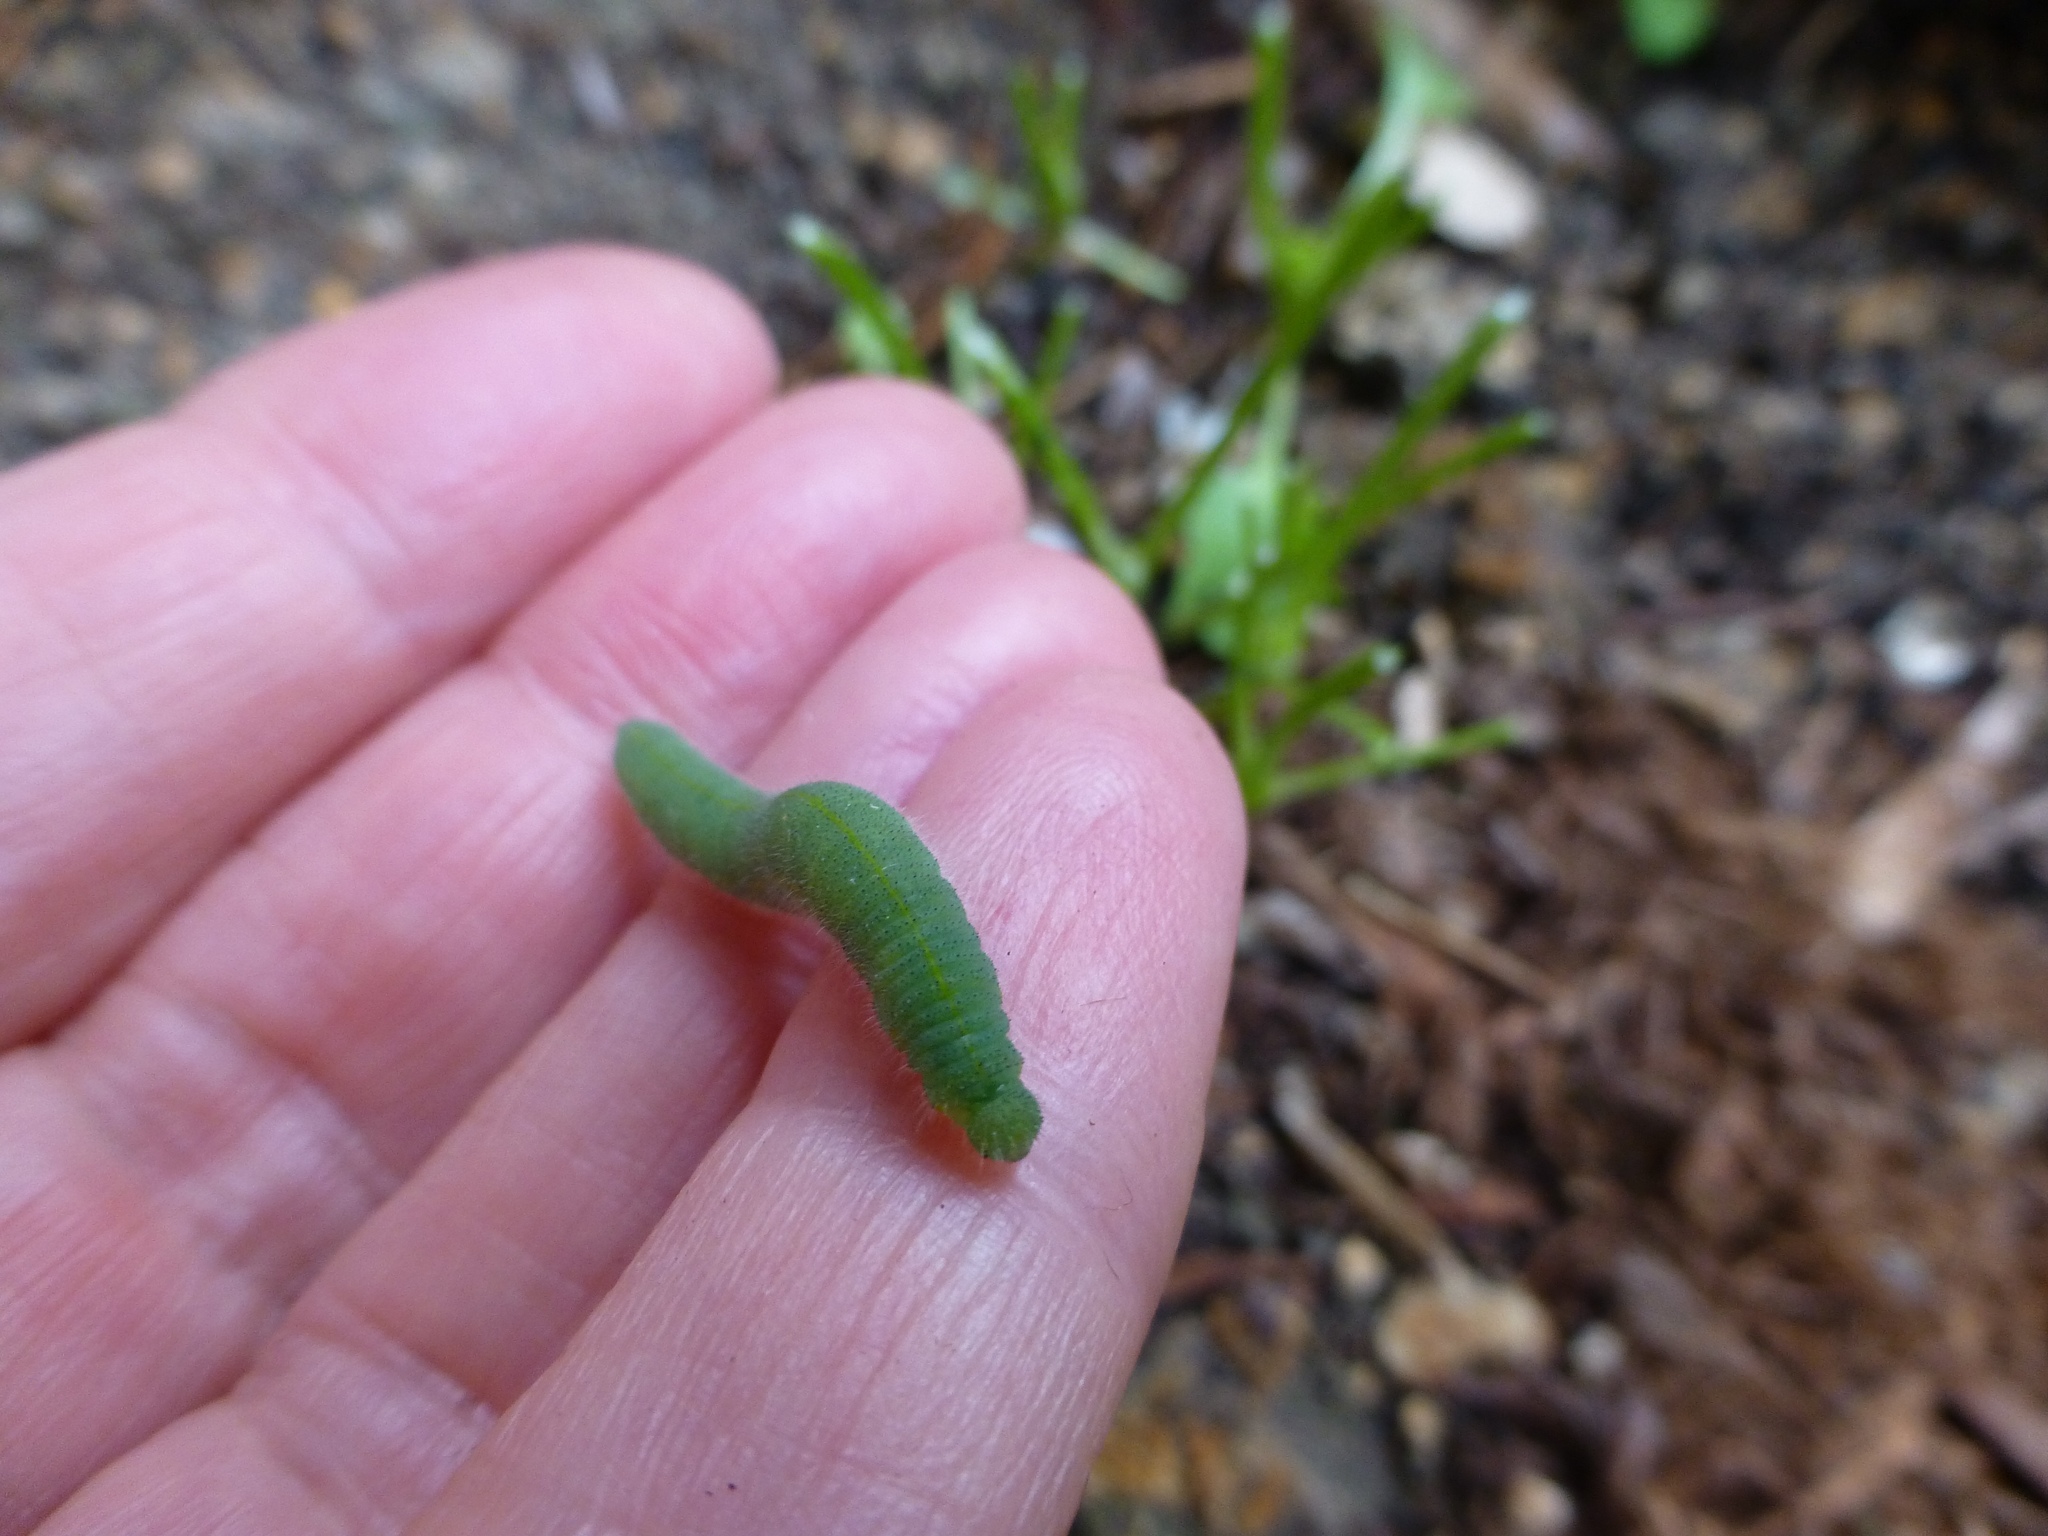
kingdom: Animalia
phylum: Arthropoda
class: Insecta
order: Lepidoptera
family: Pieridae
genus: Pieris
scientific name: Pieris rapae
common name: Small white
